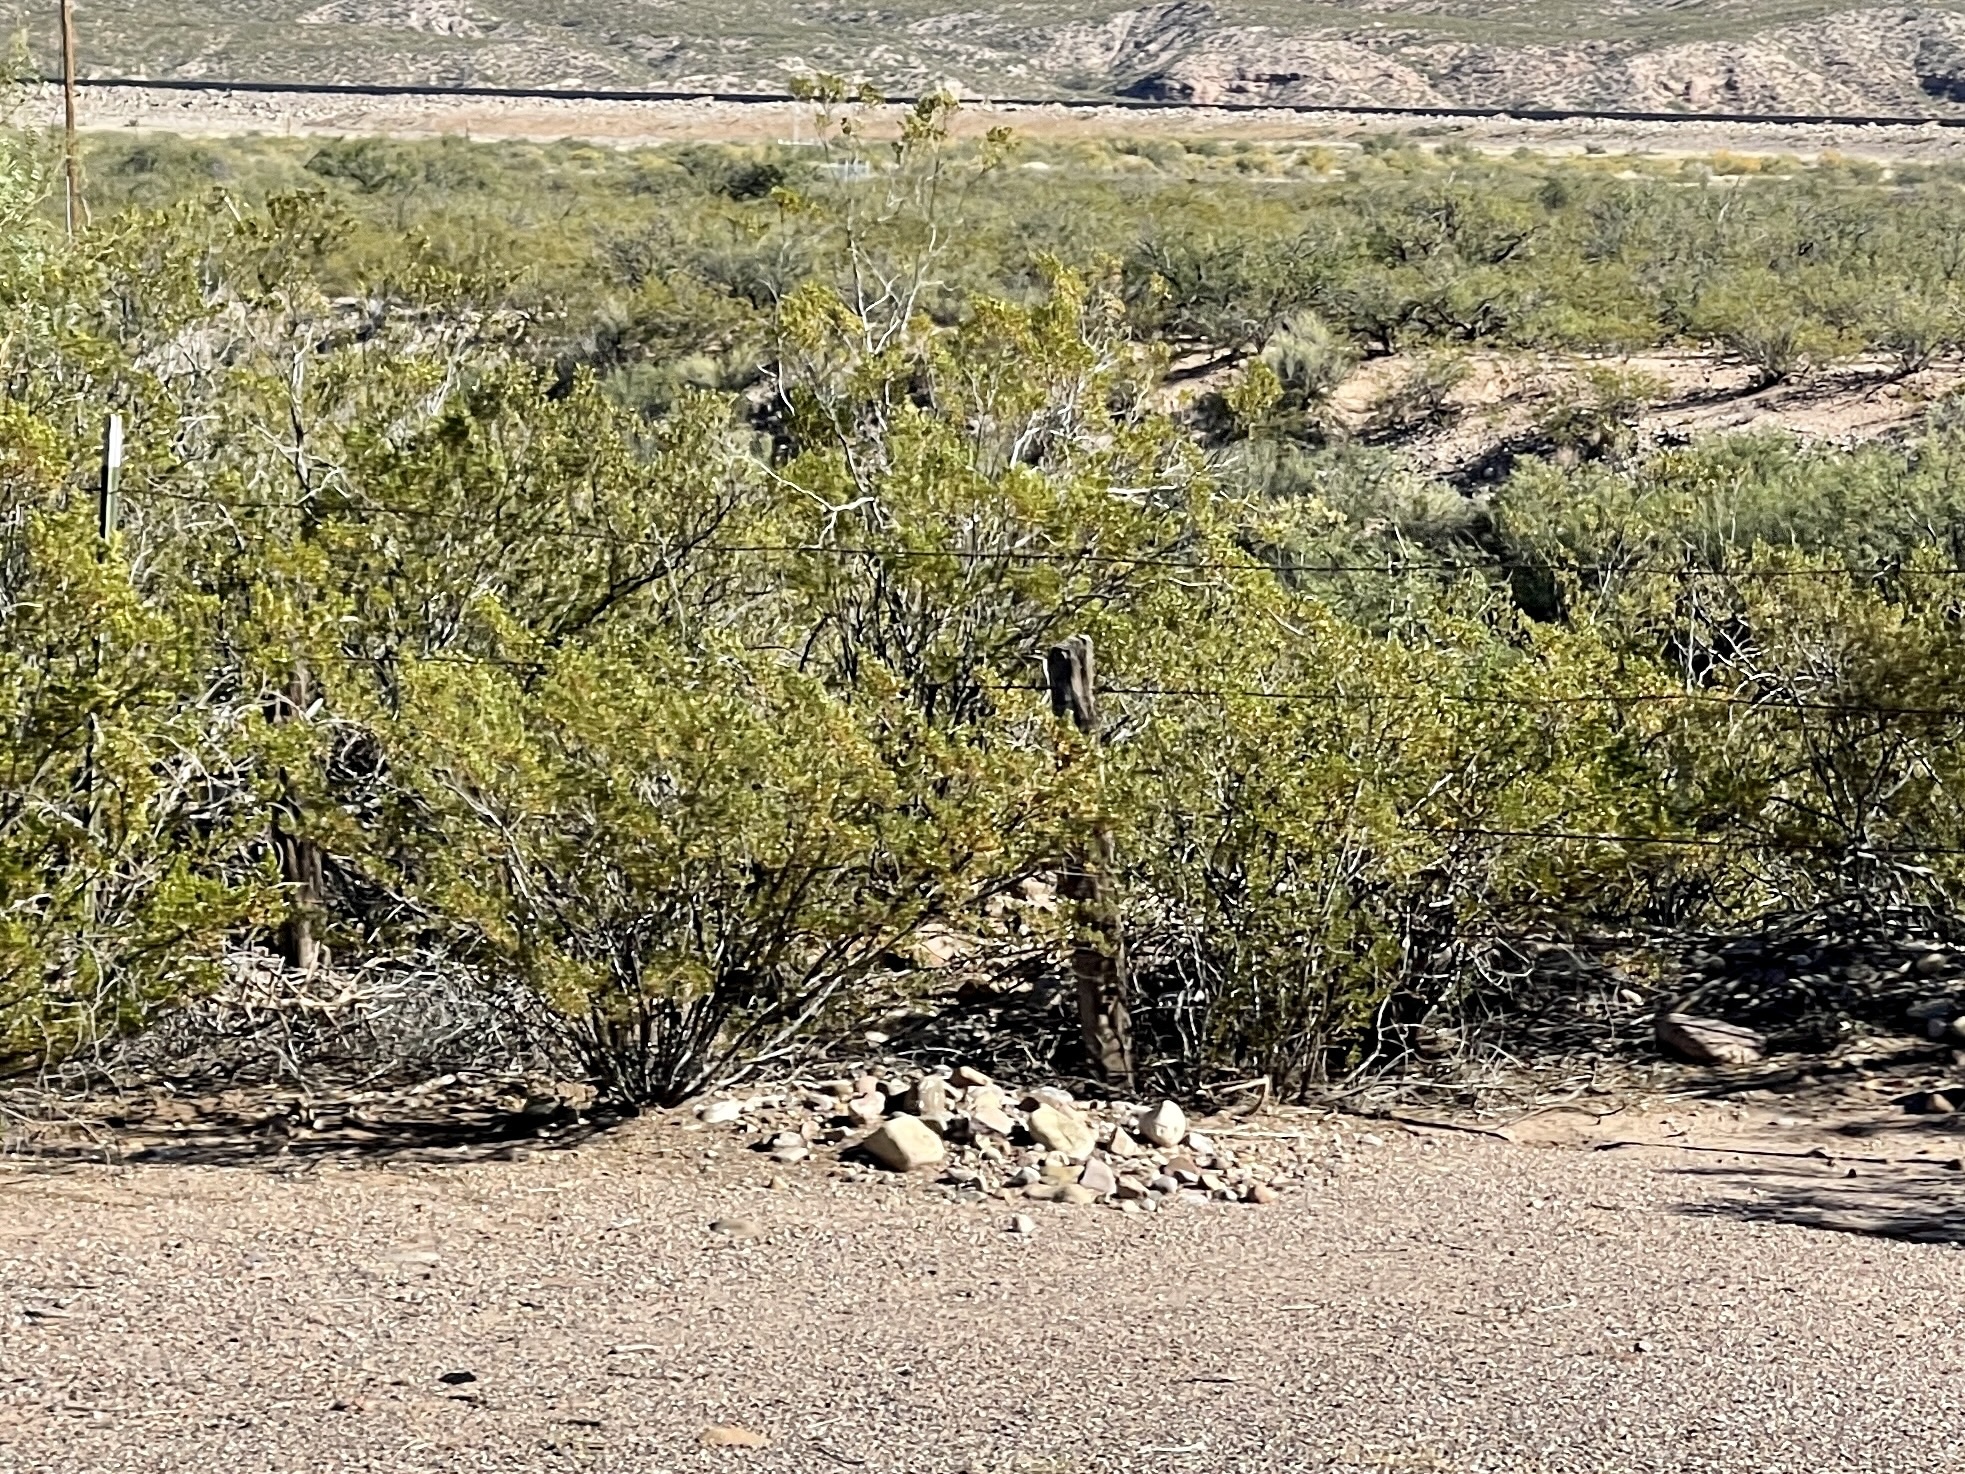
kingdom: Plantae
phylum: Tracheophyta
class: Magnoliopsida
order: Zygophyllales
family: Zygophyllaceae
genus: Larrea
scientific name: Larrea tridentata
